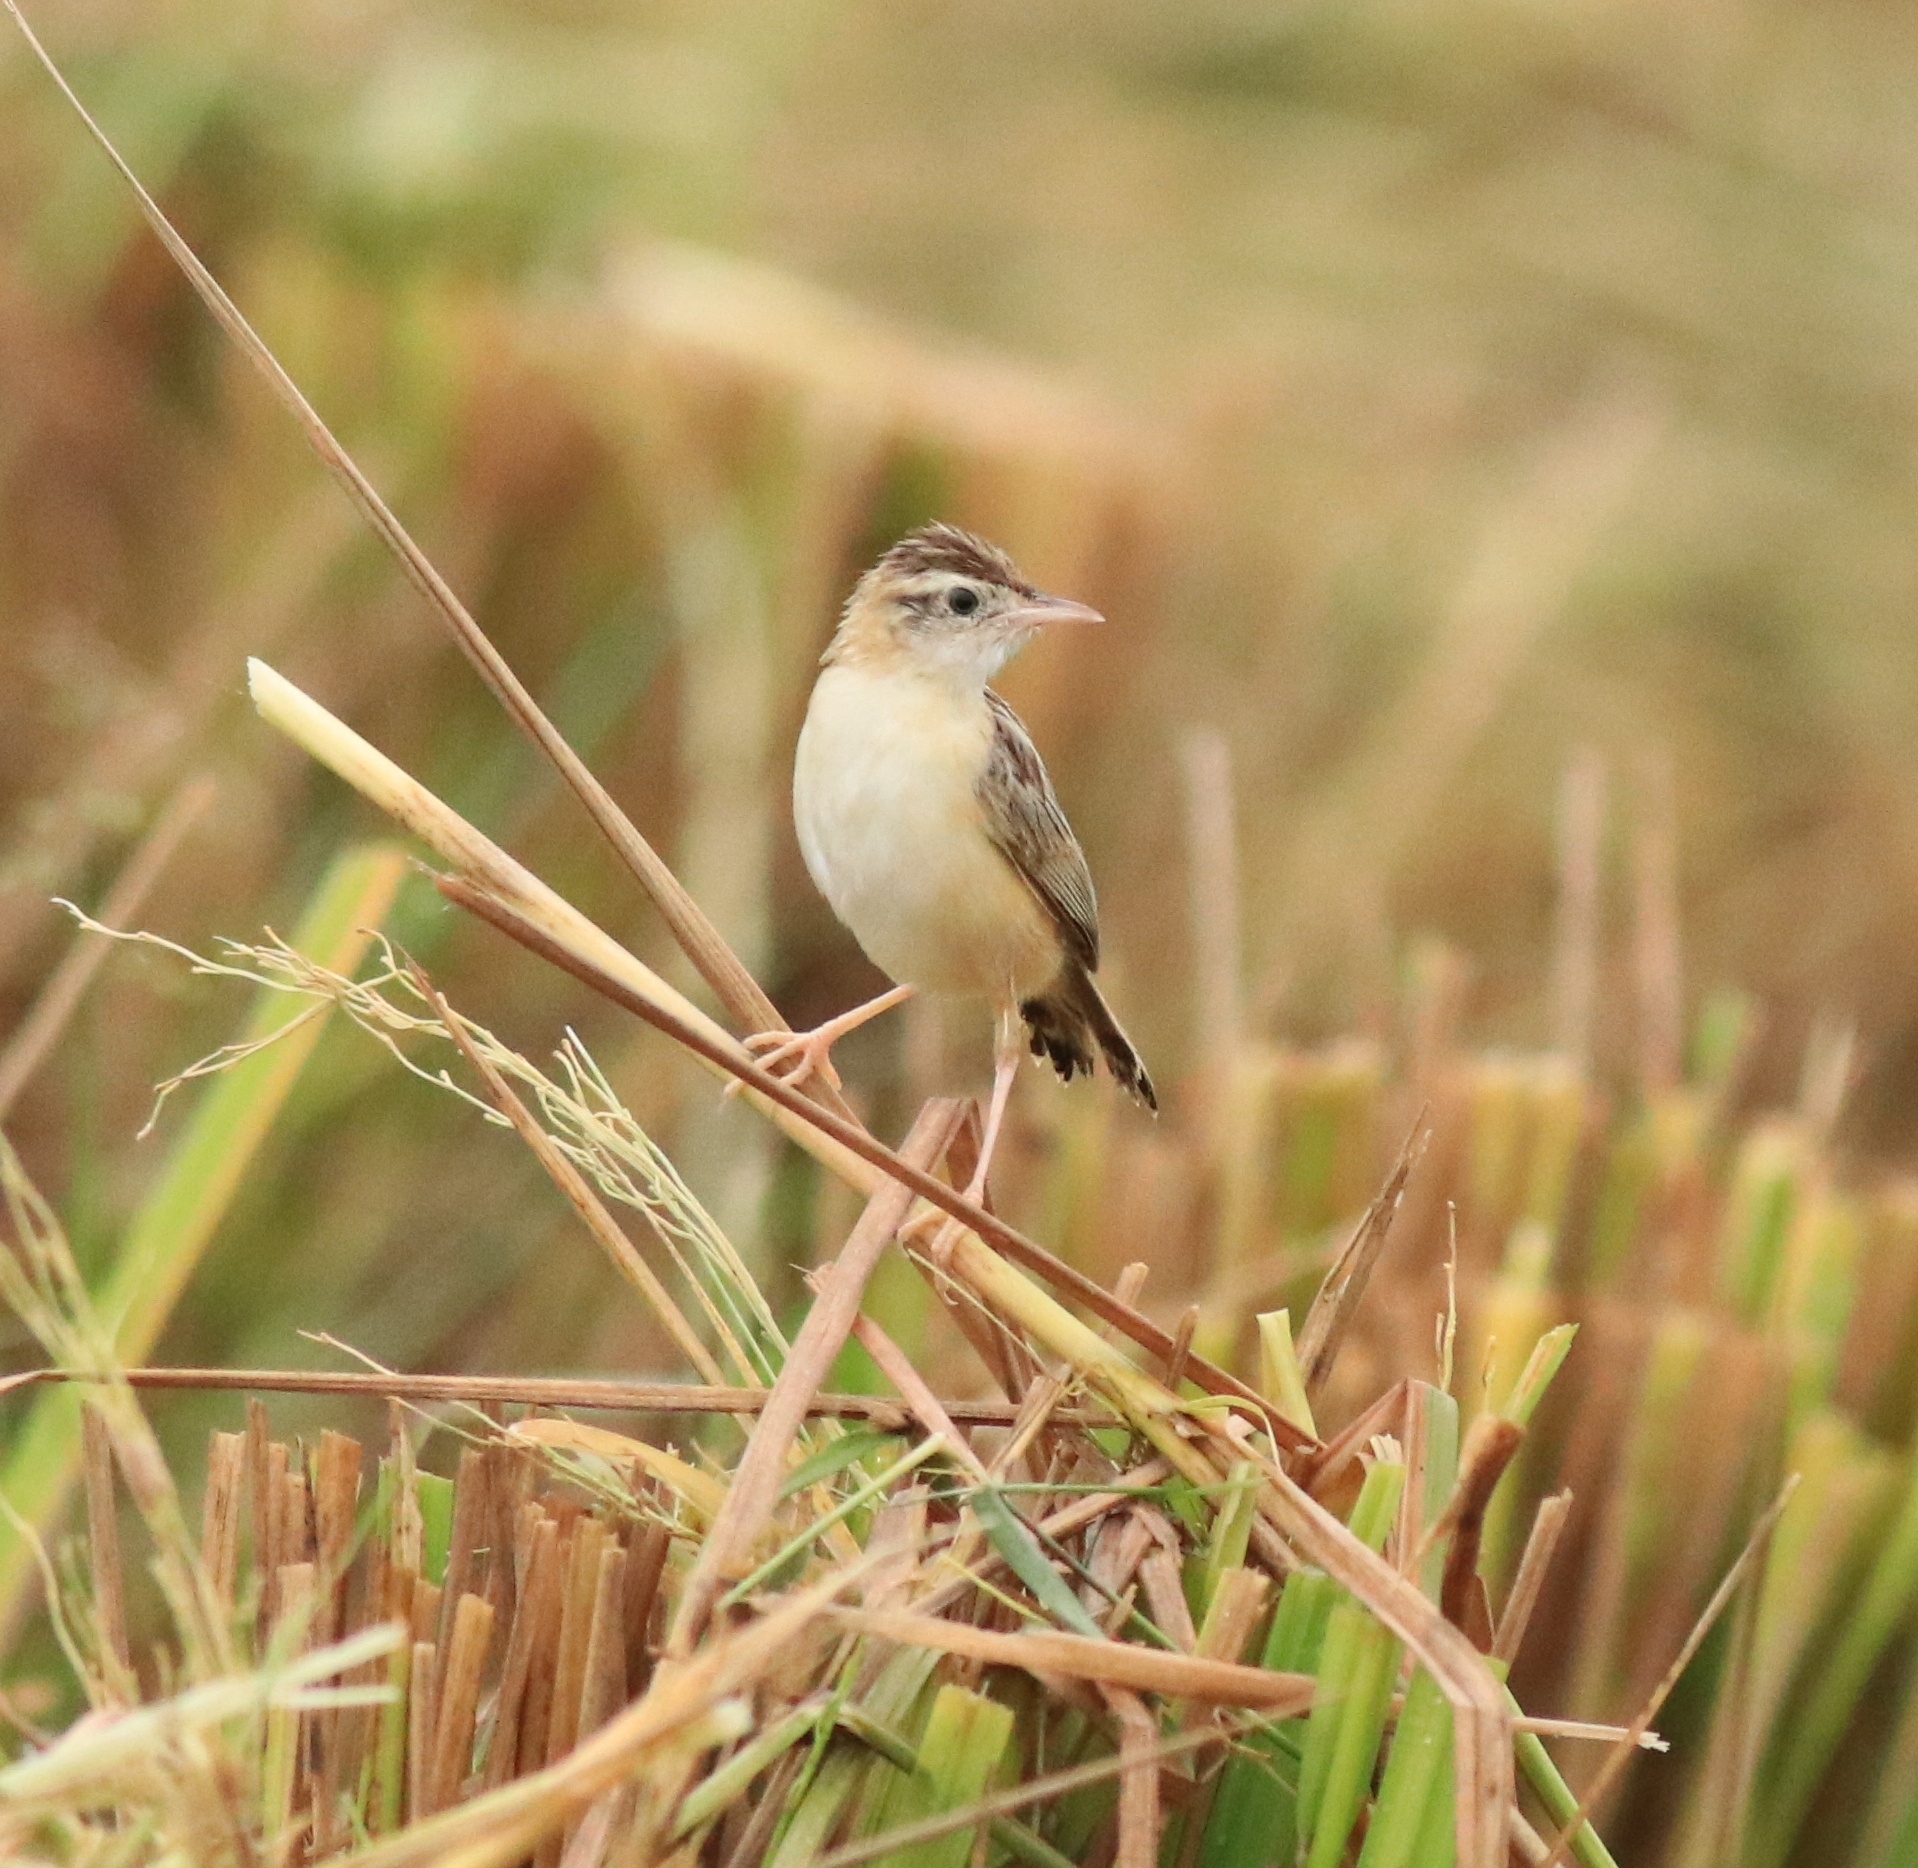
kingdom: Animalia
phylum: Chordata
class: Aves
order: Passeriformes
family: Cisticolidae
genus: Cisticola
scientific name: Cisticola juncidis
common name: Zitting cisticola
